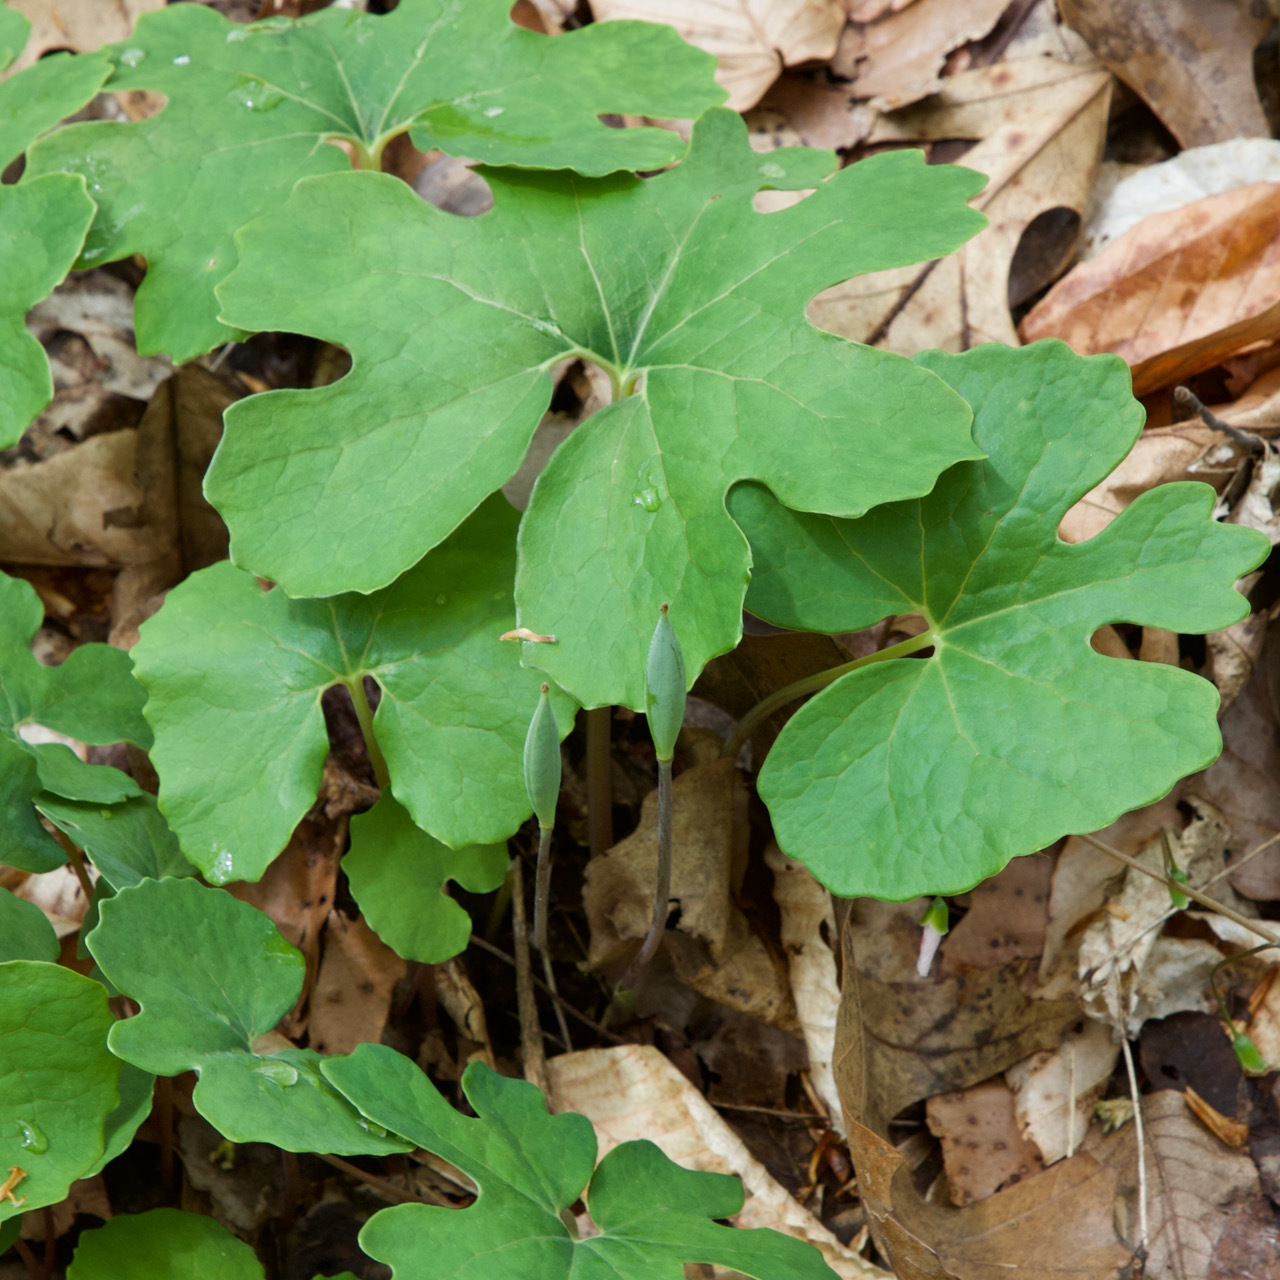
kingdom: Plantae
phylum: Tracheophyta
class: Magnoliopsida
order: Ranunculales
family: Papaveraceae
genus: Sanguinaria
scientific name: Sanguinaria canadensis
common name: Bloodroot
